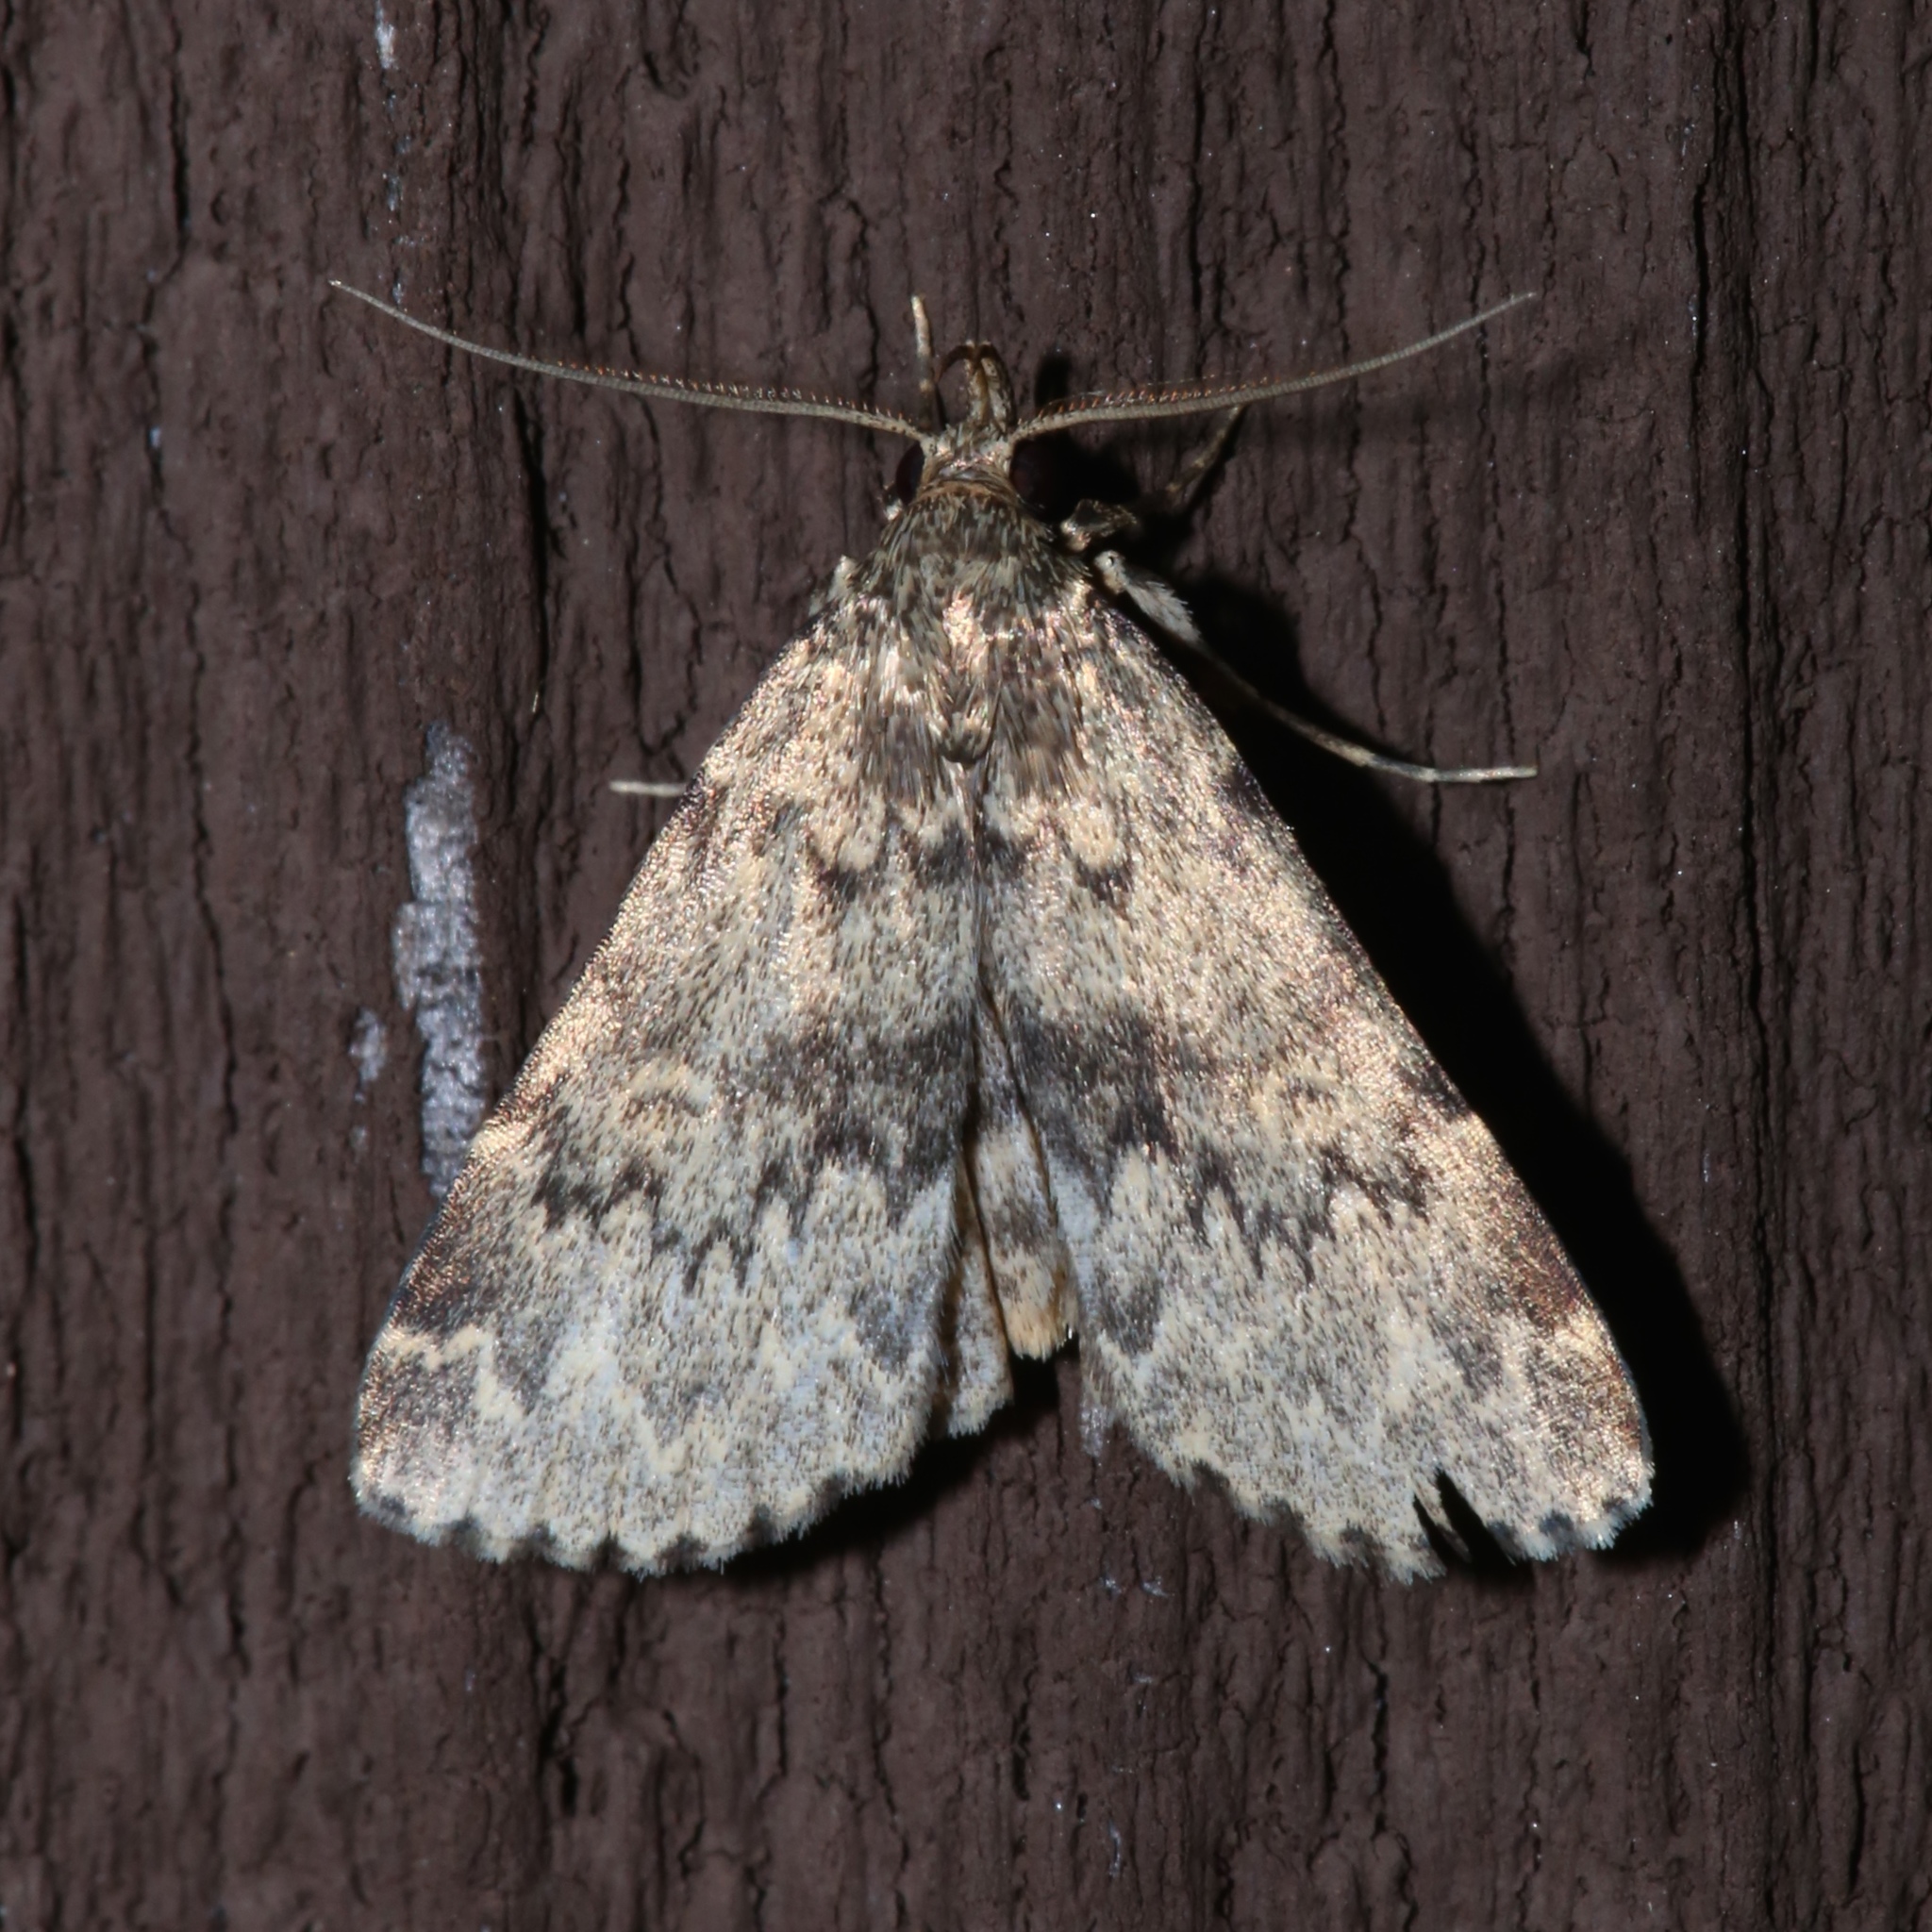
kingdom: Animalia
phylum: Arthropoda
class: Insecta
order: Lepidoptera
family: Erebidae
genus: Idia
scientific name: Idia denticulalis
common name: Toothed idia moth
